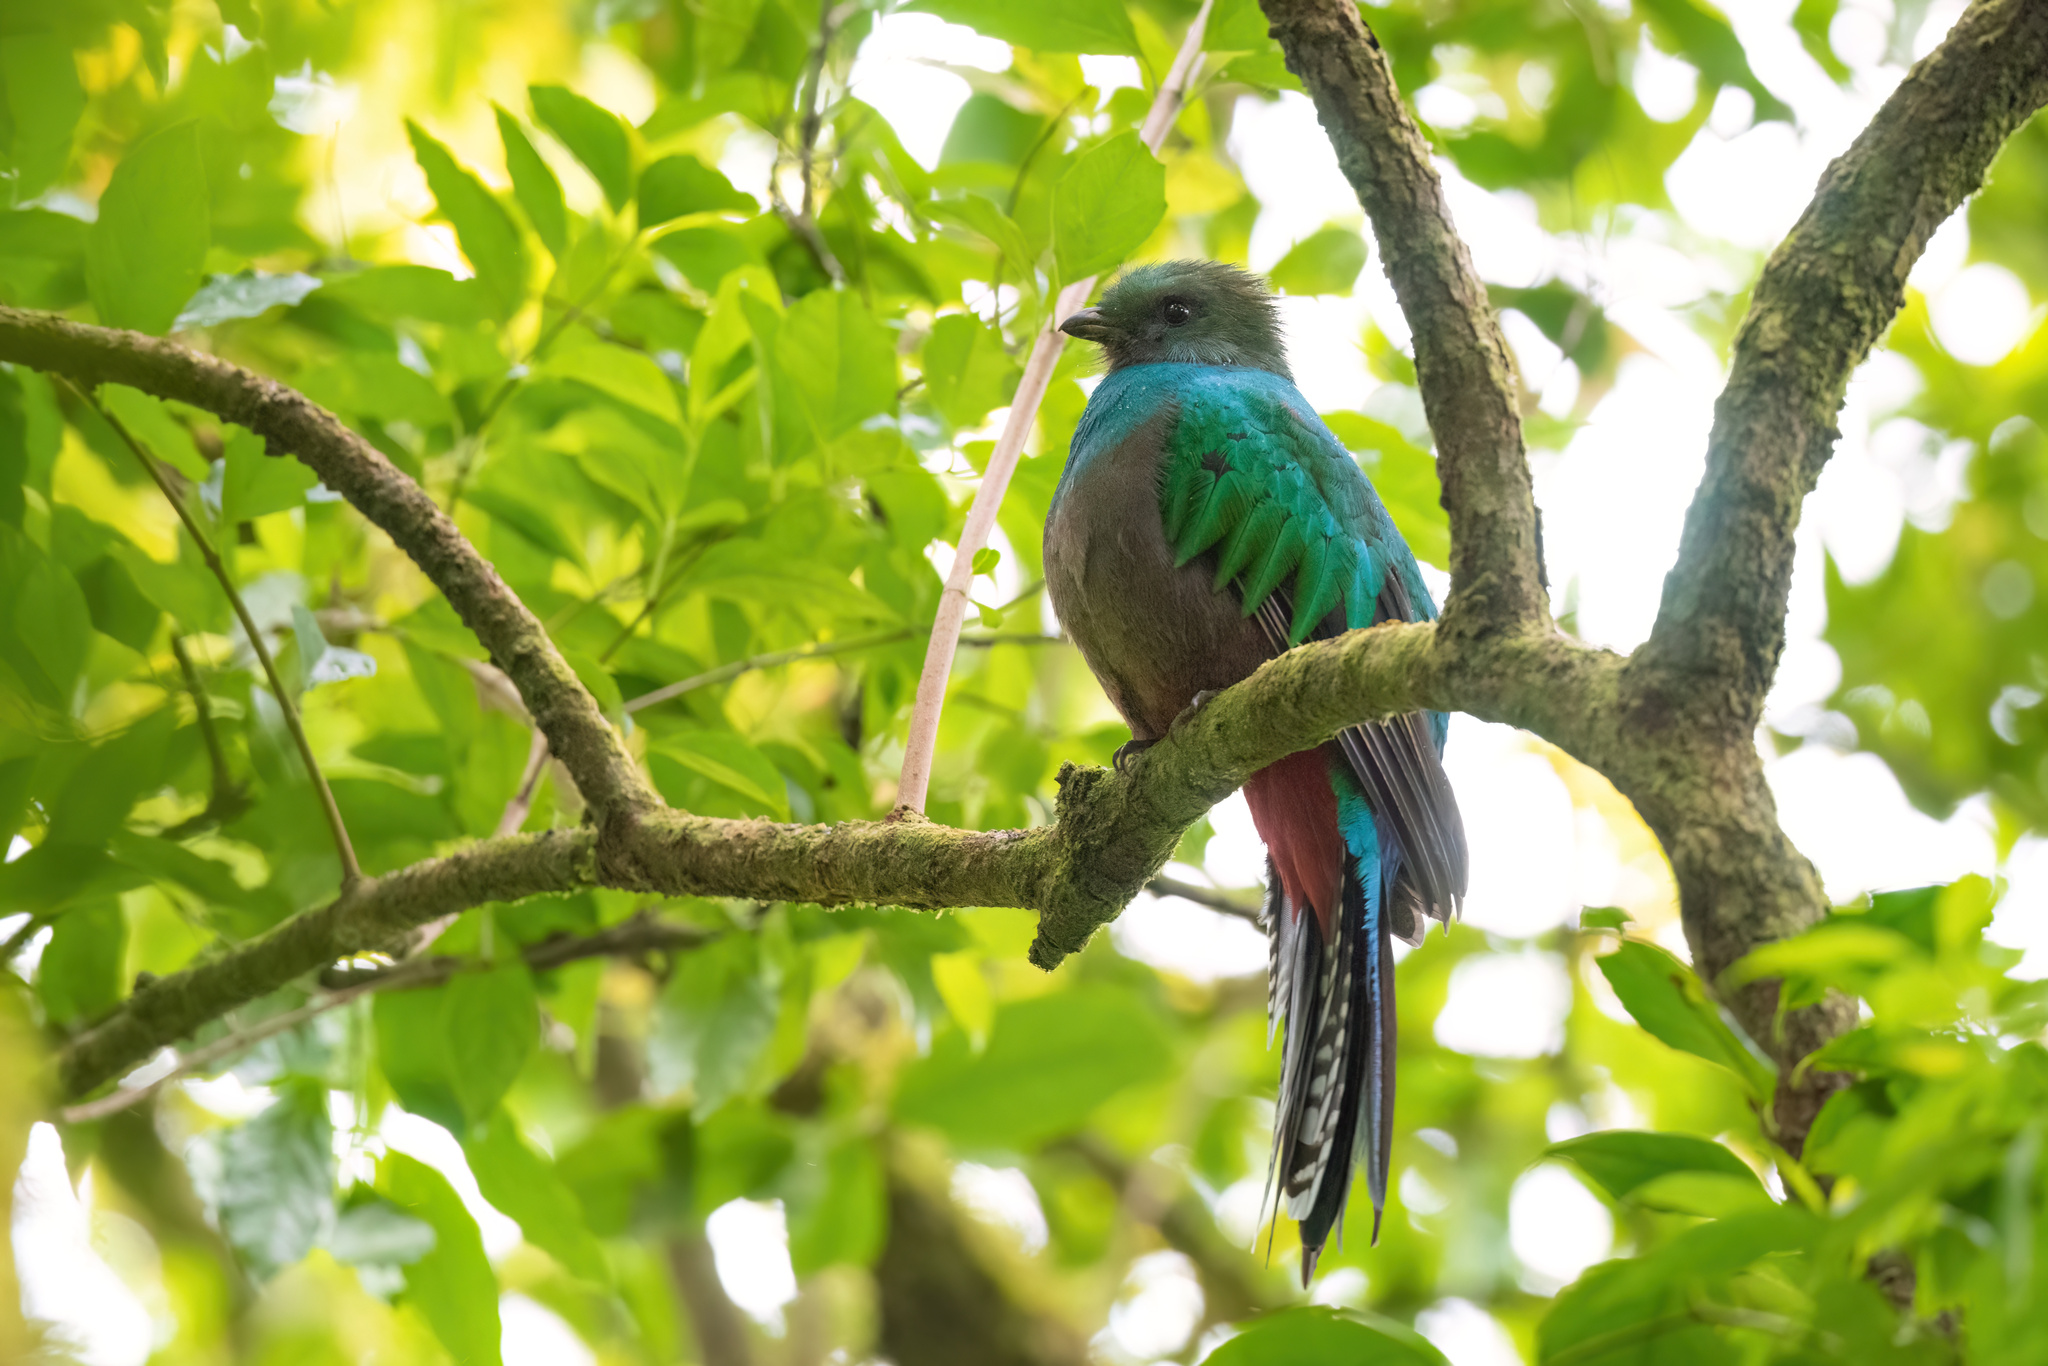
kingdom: Animalia
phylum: Chordata
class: Aves
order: Trogoniformes
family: Trogonidae
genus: Pharomachrus
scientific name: Pharomachrus mocinno
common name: Resplendent quetzal
